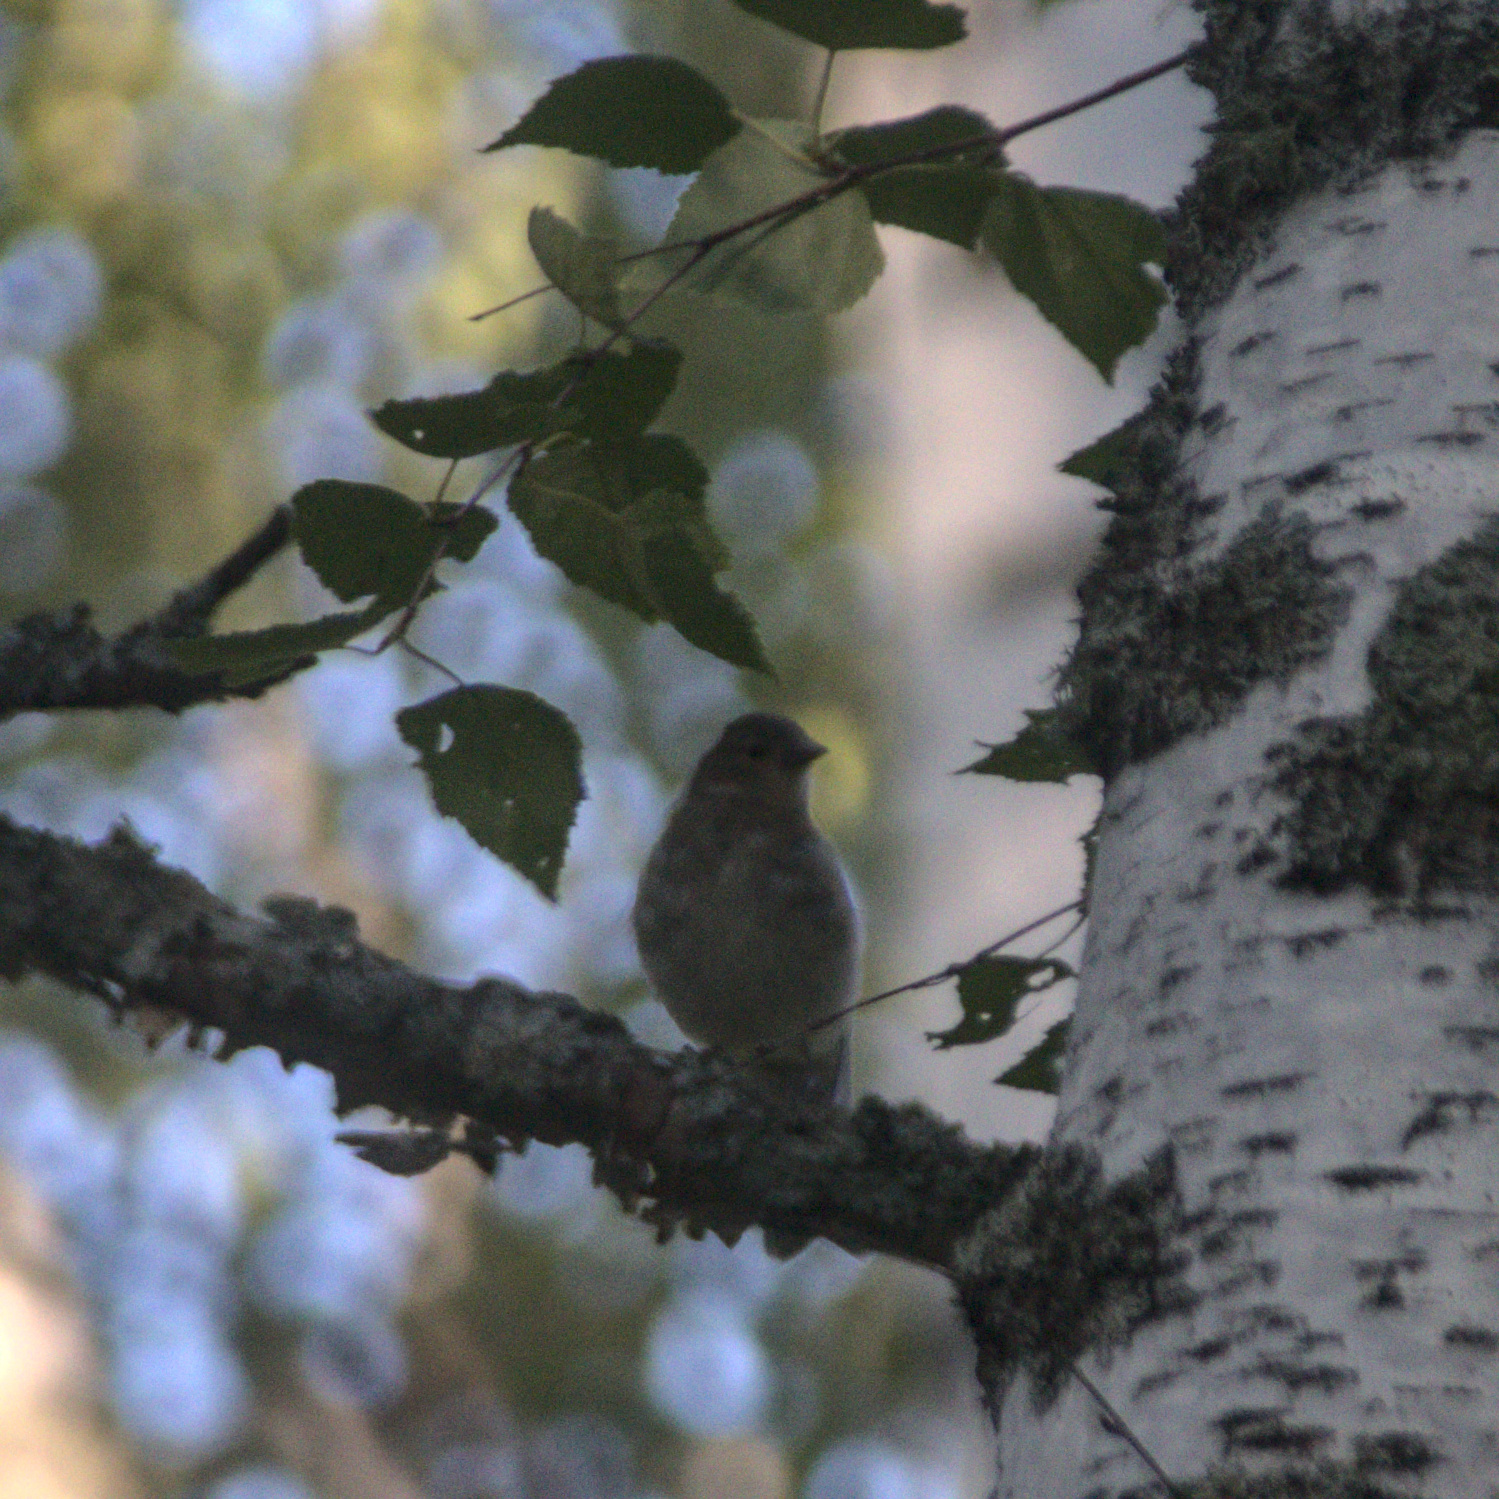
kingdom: Animalia
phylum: Chordata
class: Aves
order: Passeriformes
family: Fringillidae
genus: Fringilla
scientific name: Fringilla coelebs
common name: Common chaffinch
